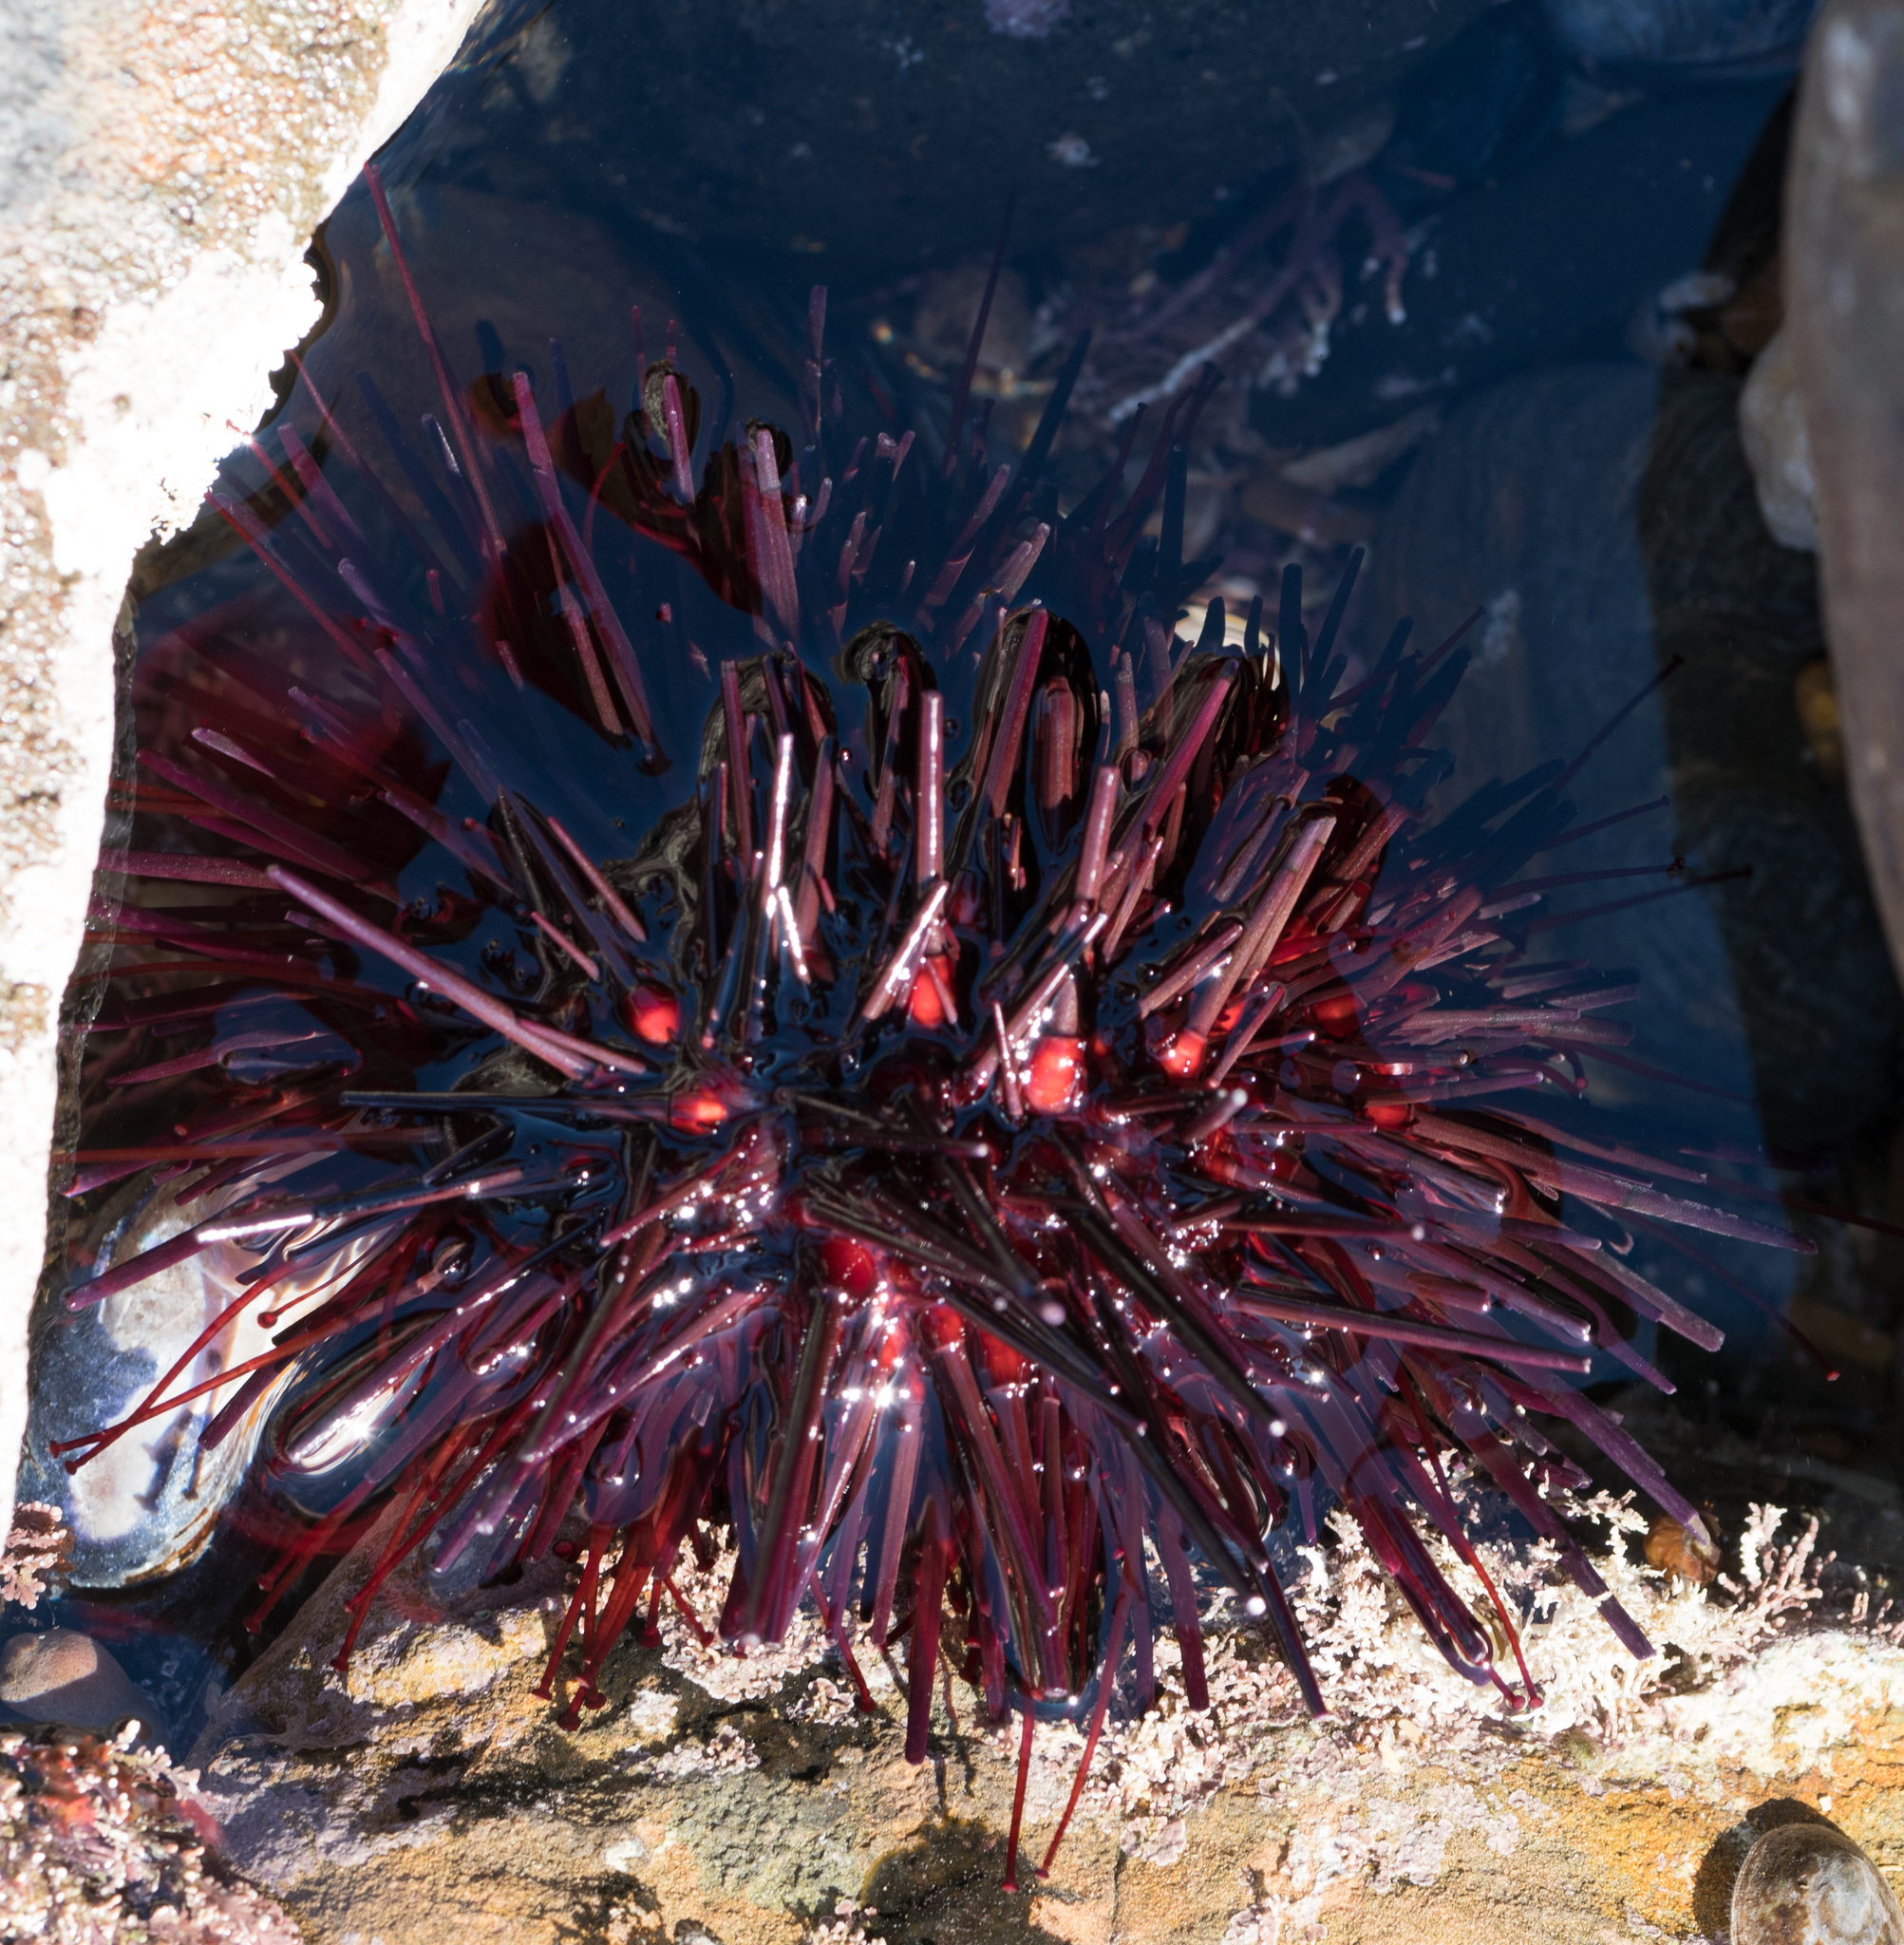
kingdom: Animalia
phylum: Echinodermata
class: Echinoidea
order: Camarodonta
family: Strongylocentrotidae
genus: Mesocentrotus
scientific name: Mesocentrotus franciscanus
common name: Red sea urchin
